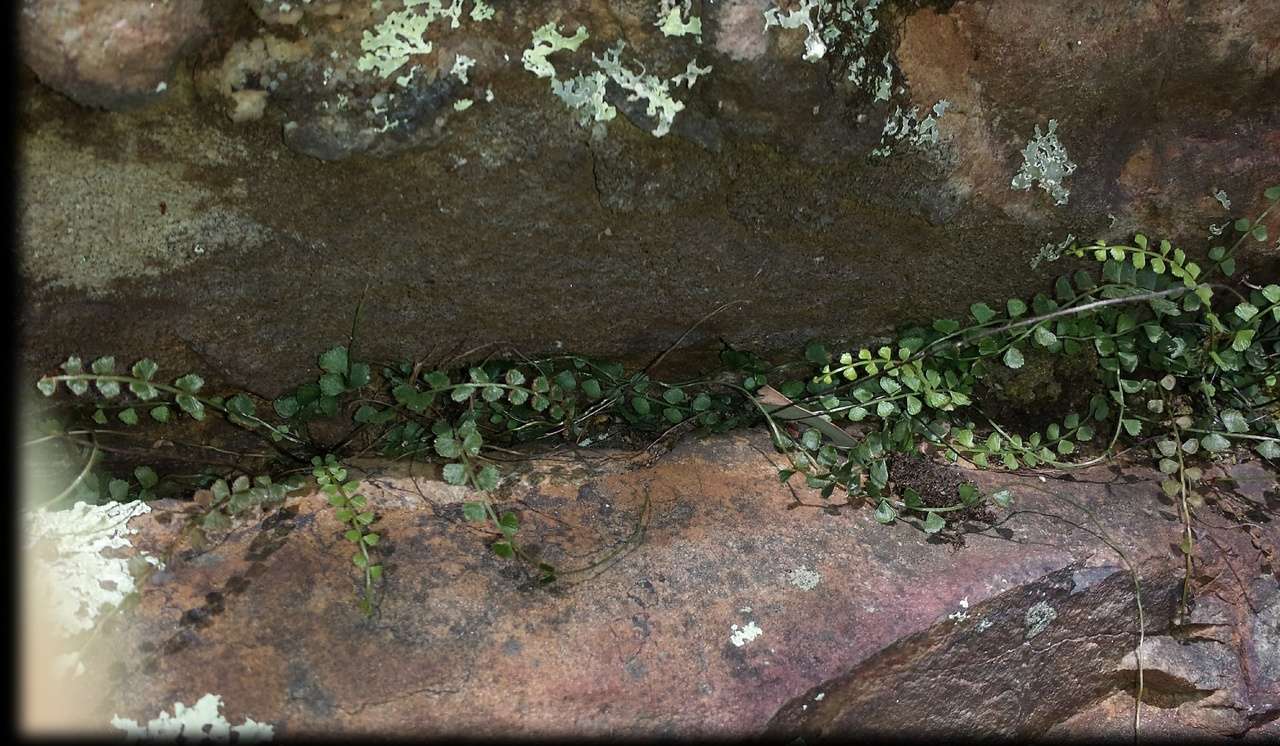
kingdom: Plantae
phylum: Tracheophyta
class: Polypodiopsida
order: Polypodiales
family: Aspleniaceae
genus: Asplenium
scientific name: Asplenium flabellifolium
